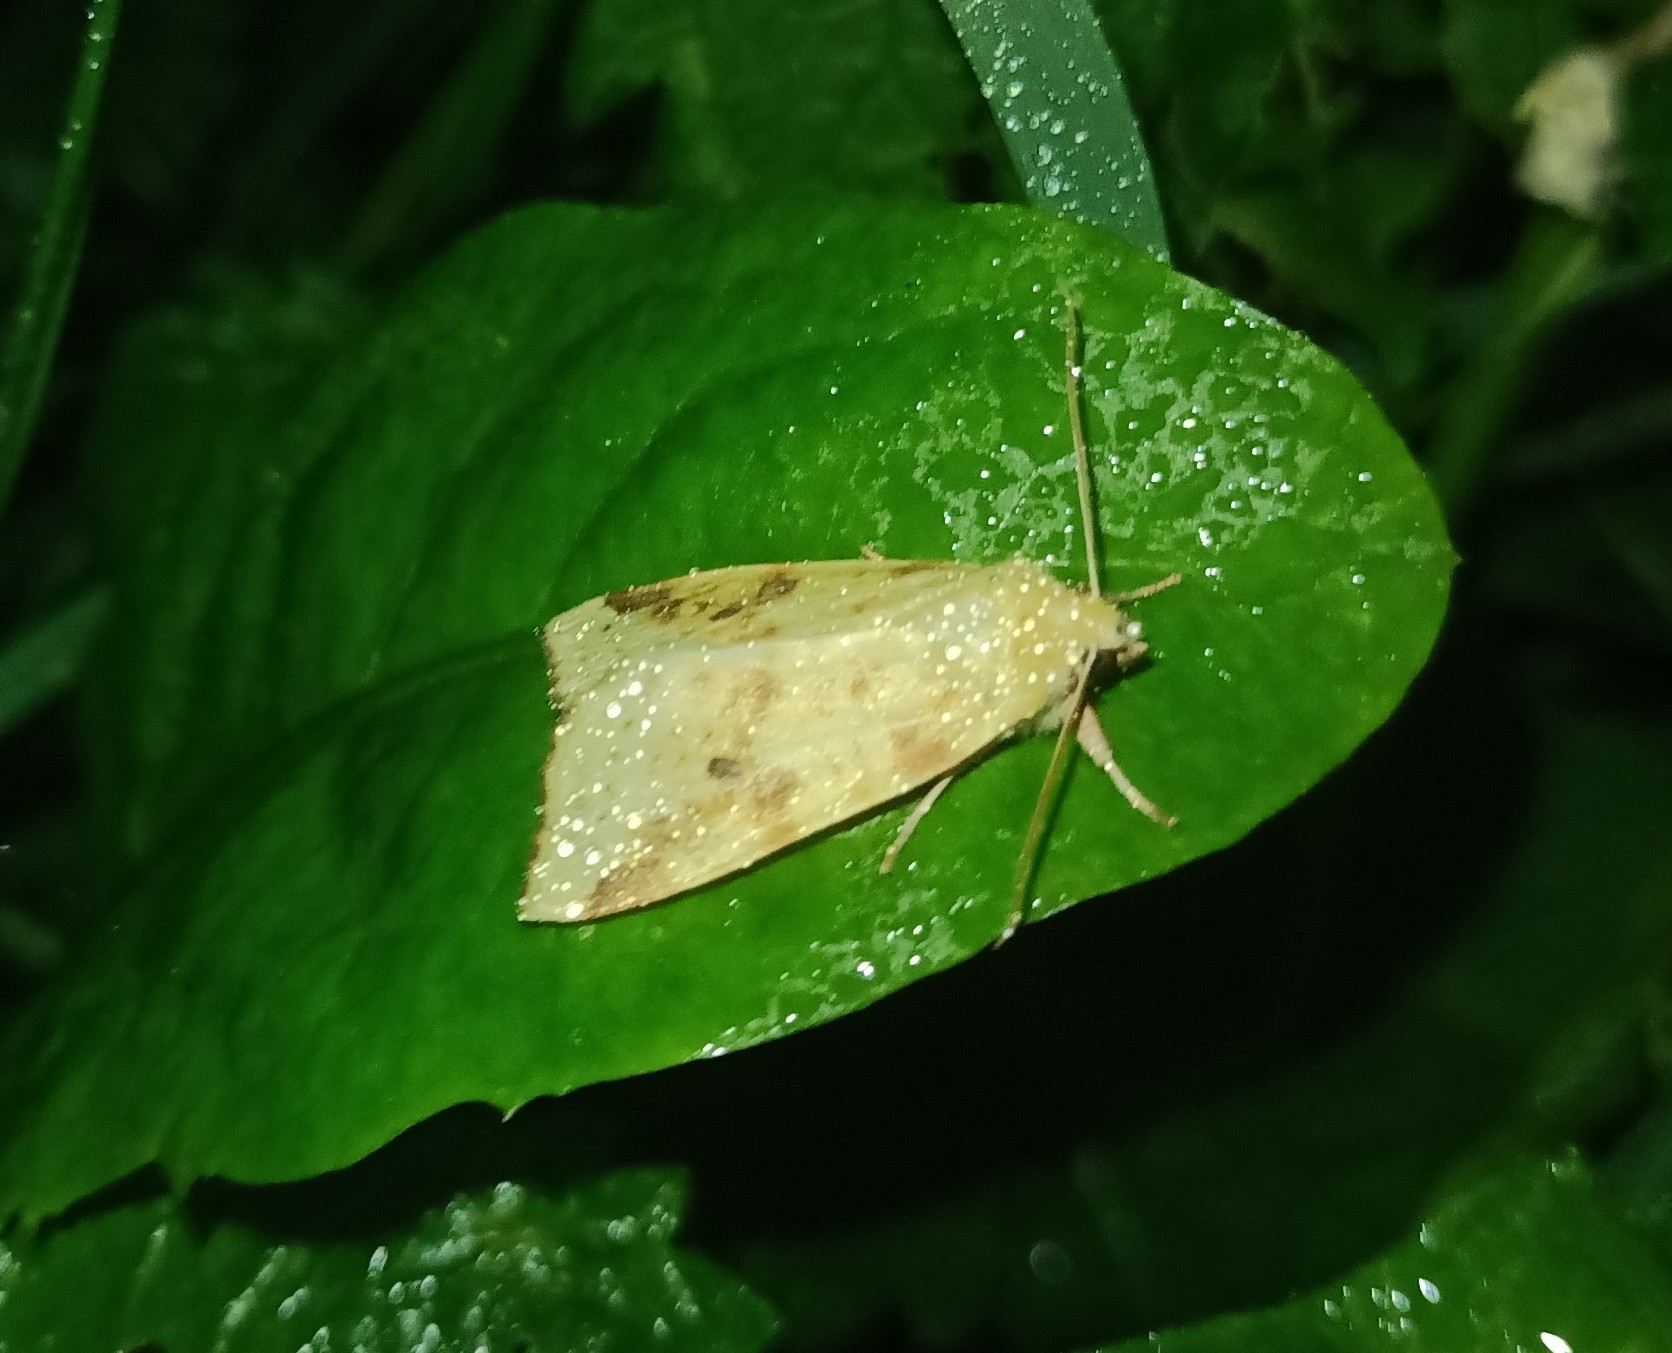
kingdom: Animalia
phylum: Arthropoda
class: Insecta
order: Lepidoptera
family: Noctuidae
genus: Xanthia
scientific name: Xanthia icteritia
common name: The sallow
